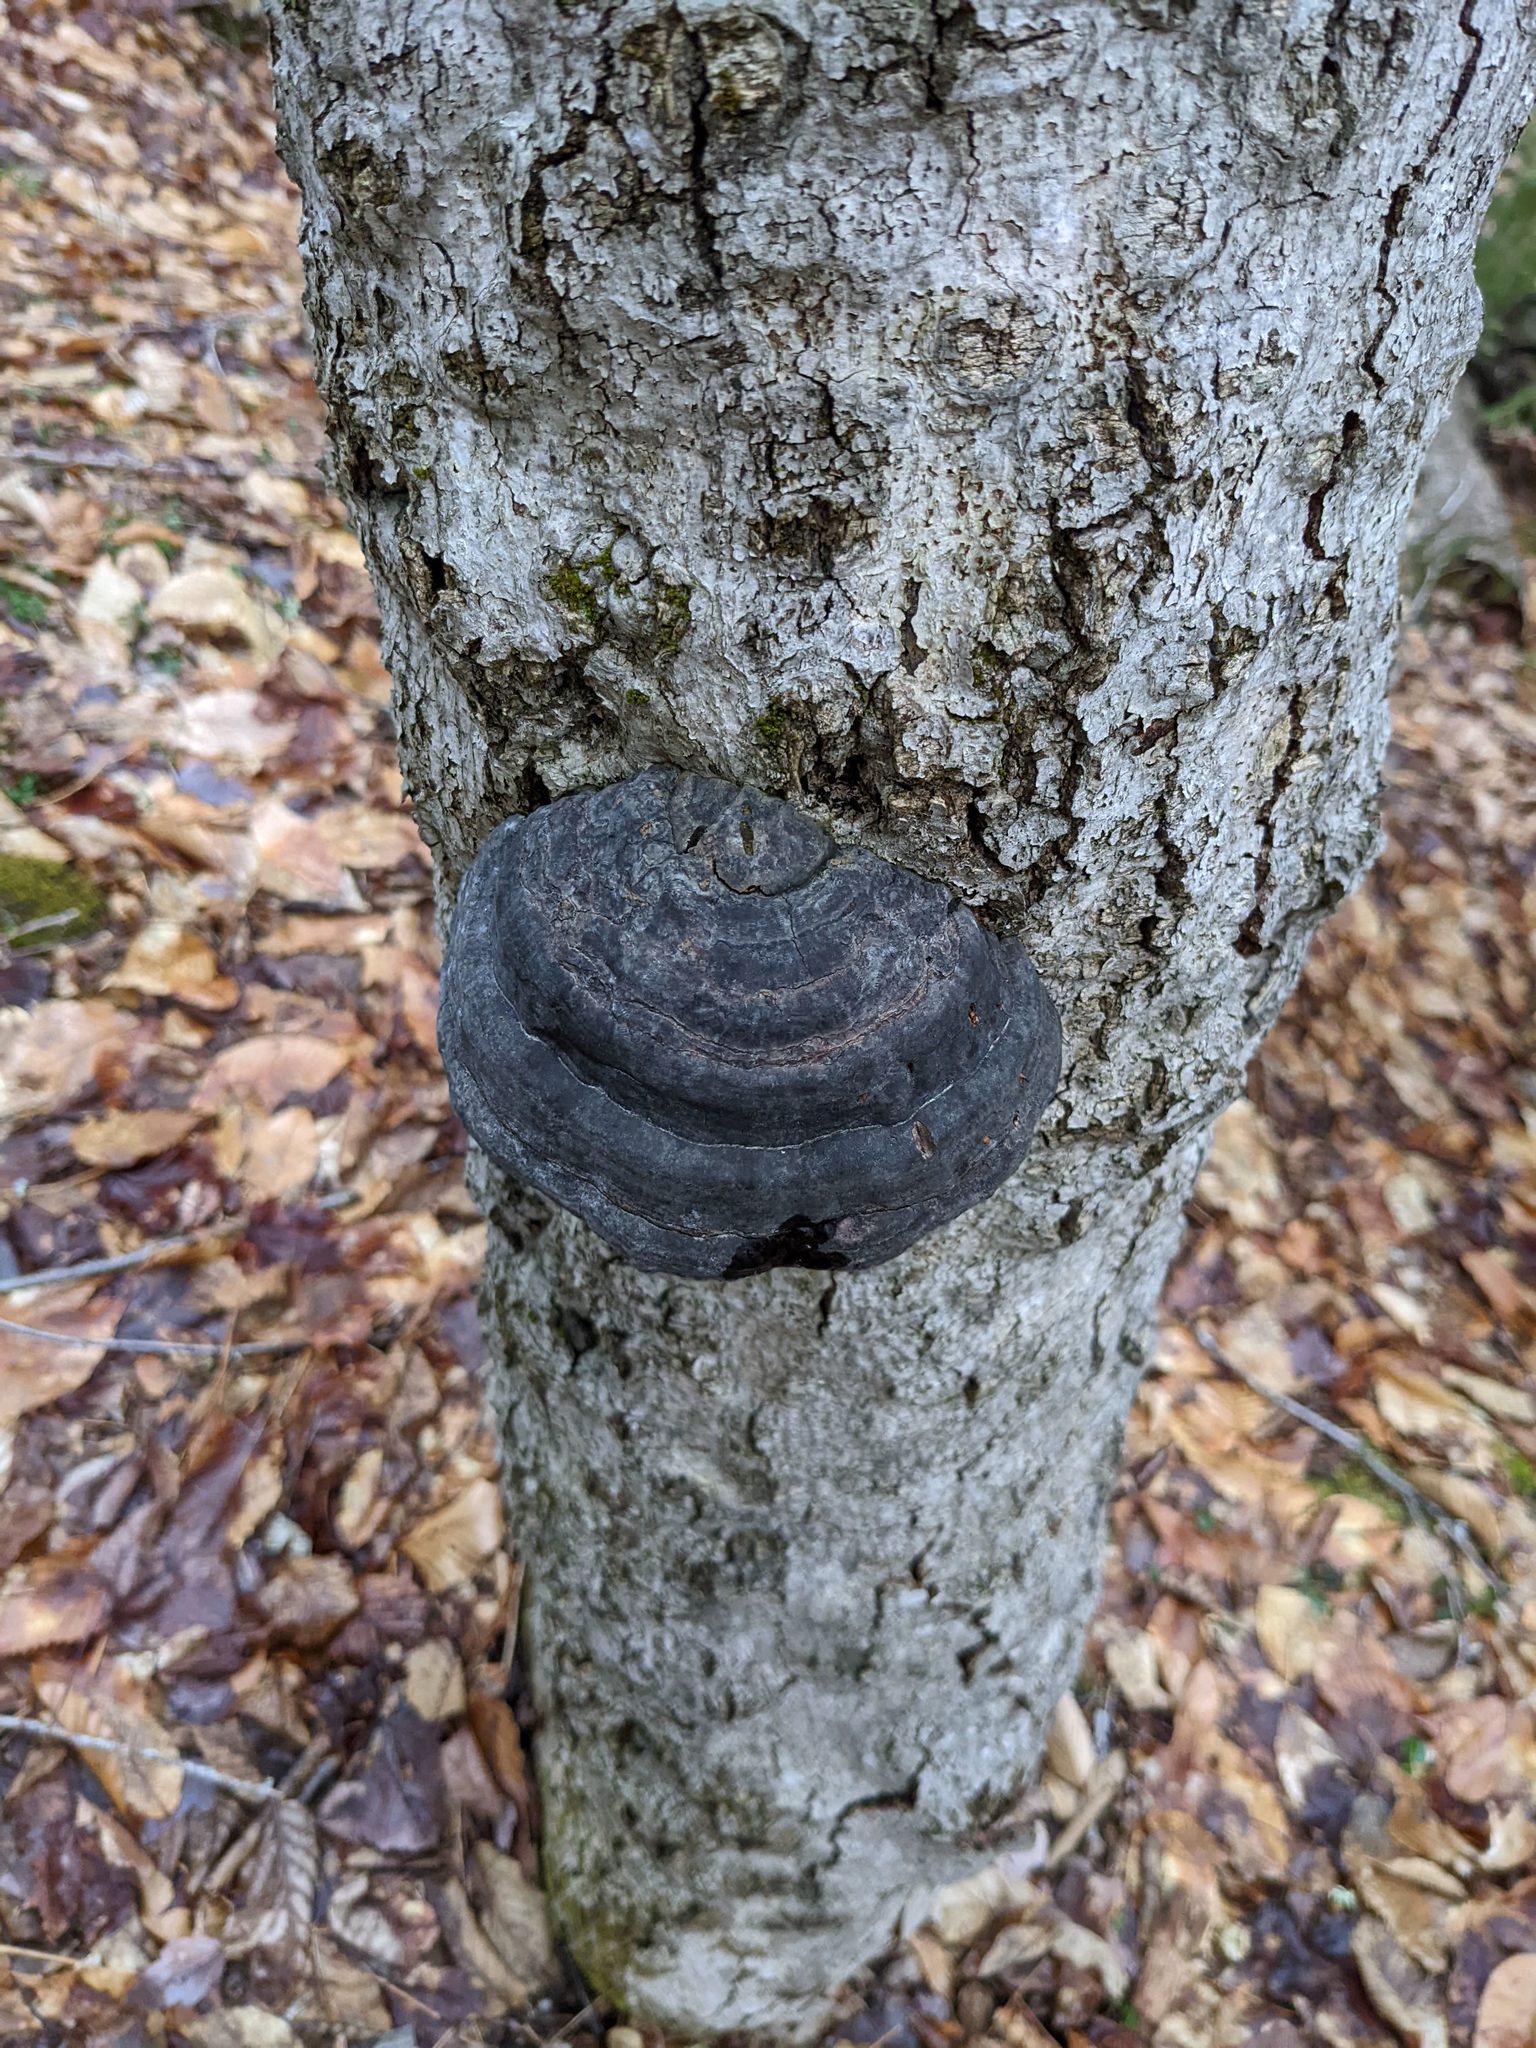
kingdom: Fungi
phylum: Basidiomycota
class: Agaricomycetes
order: Polyporales
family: Polyporaceae
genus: Fomes
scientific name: Fomes fomentarius
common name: Hoof fungus
